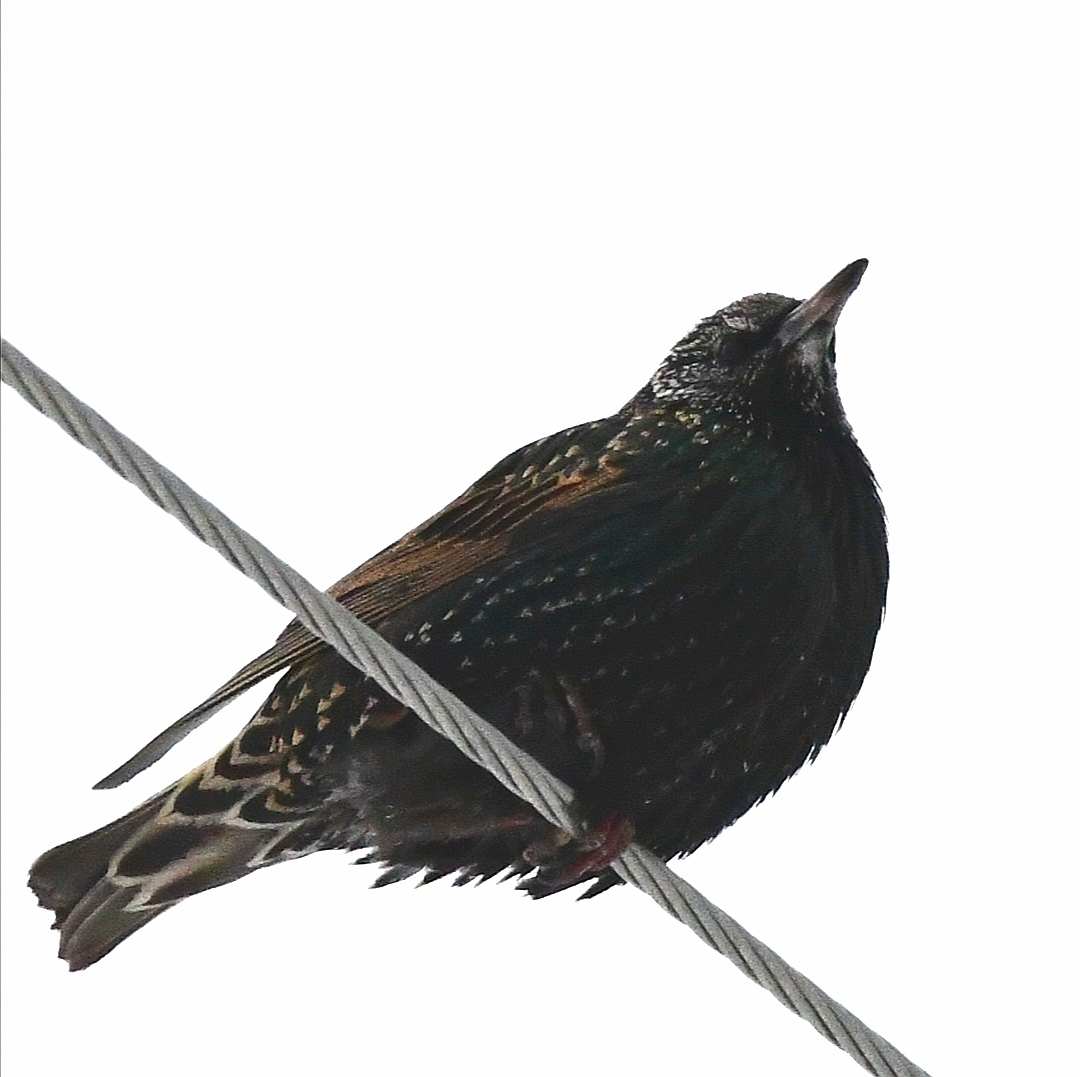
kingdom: Animalia
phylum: Chordata
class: Aves
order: Passeriformes
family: Sturnidae
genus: Sturnus
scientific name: Sturnus vulgaris
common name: Common starling
